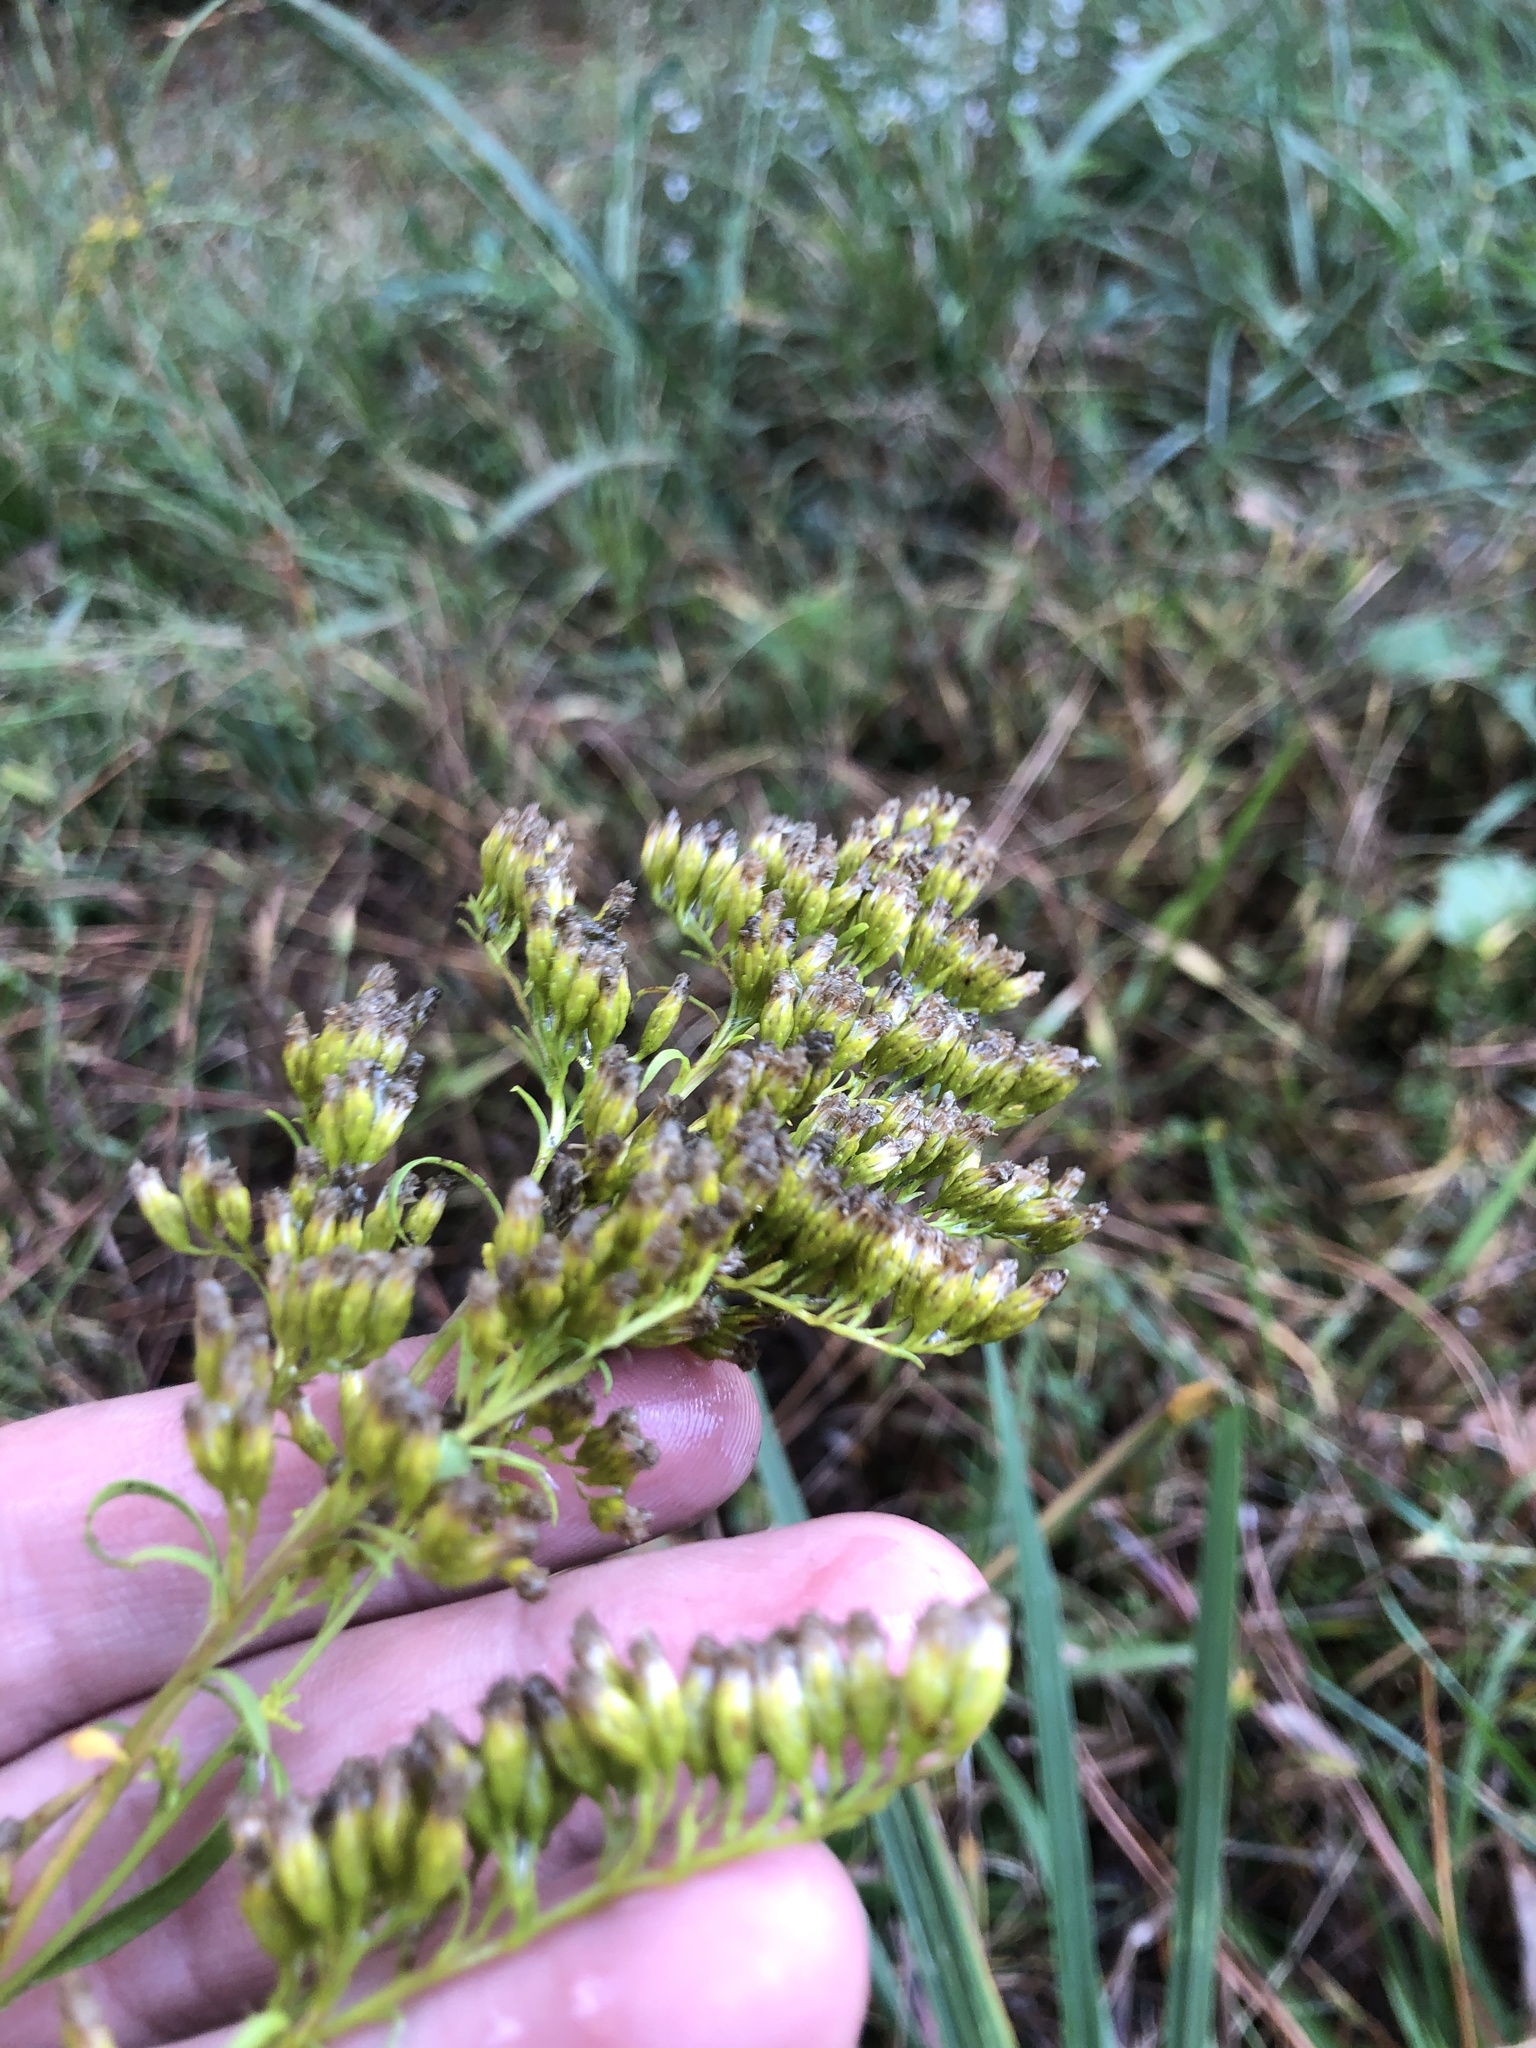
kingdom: Plantae
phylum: Tracheophyta
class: Magnoliopsida
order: Asterales
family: Asteraceae
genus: Solidago
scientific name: Solidago pinetorum
